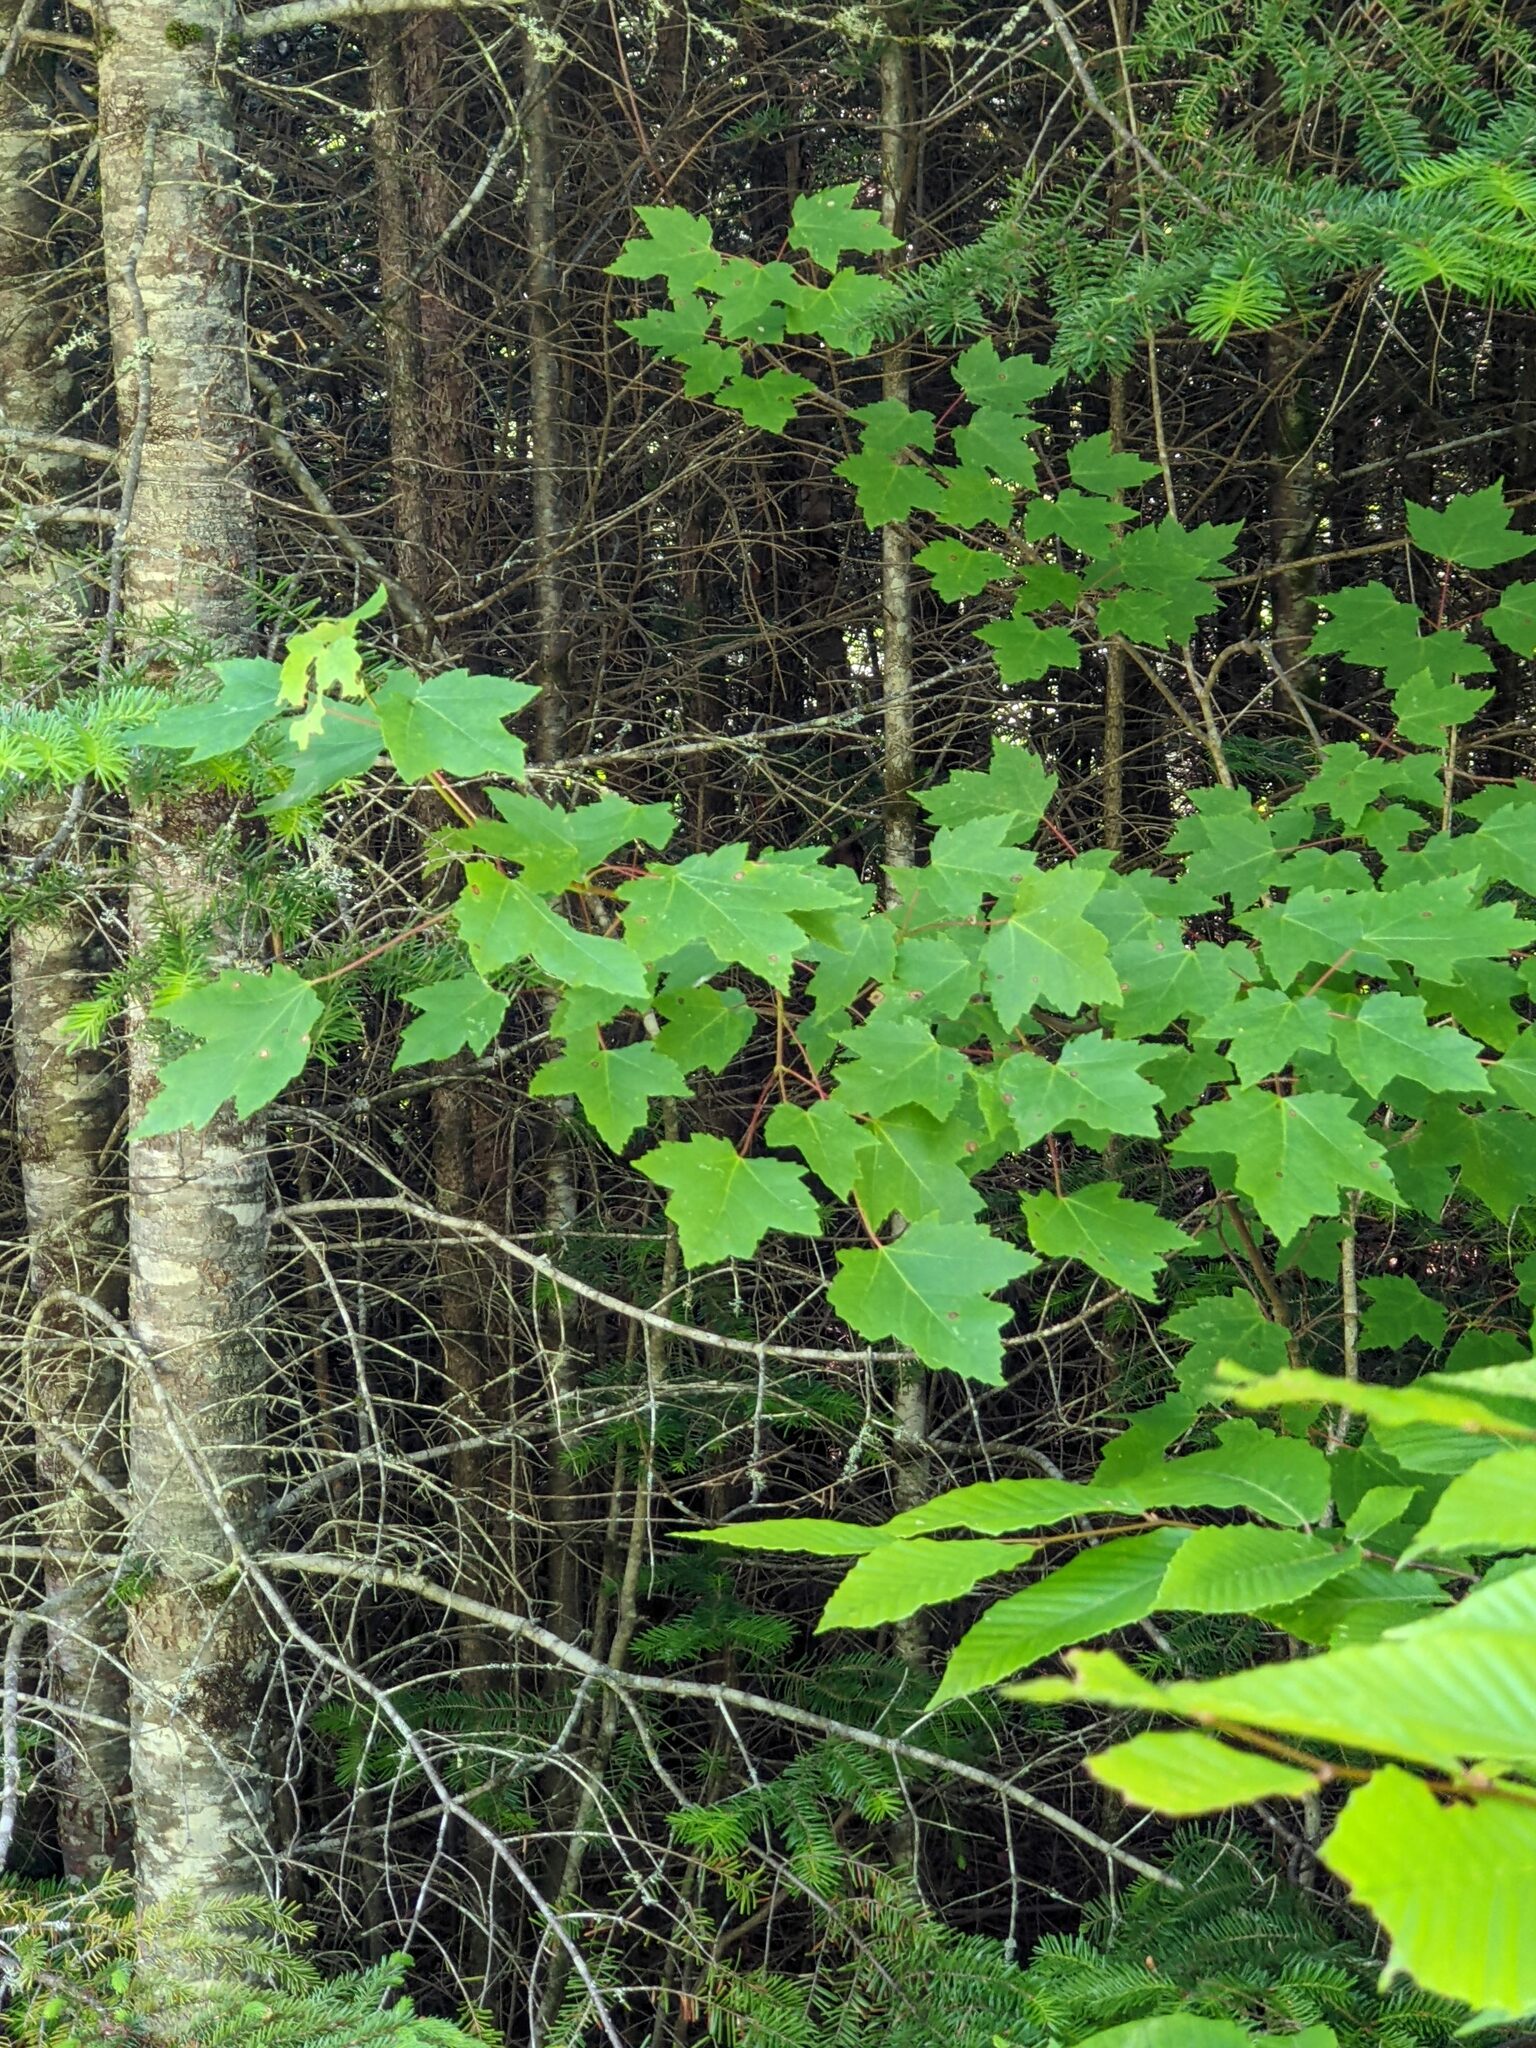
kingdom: Plantae
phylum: Tracheophyta
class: Magnoliopsida
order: Sapindales
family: Sapindaceae
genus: Acer
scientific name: Acer rubrum
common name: Red maple
